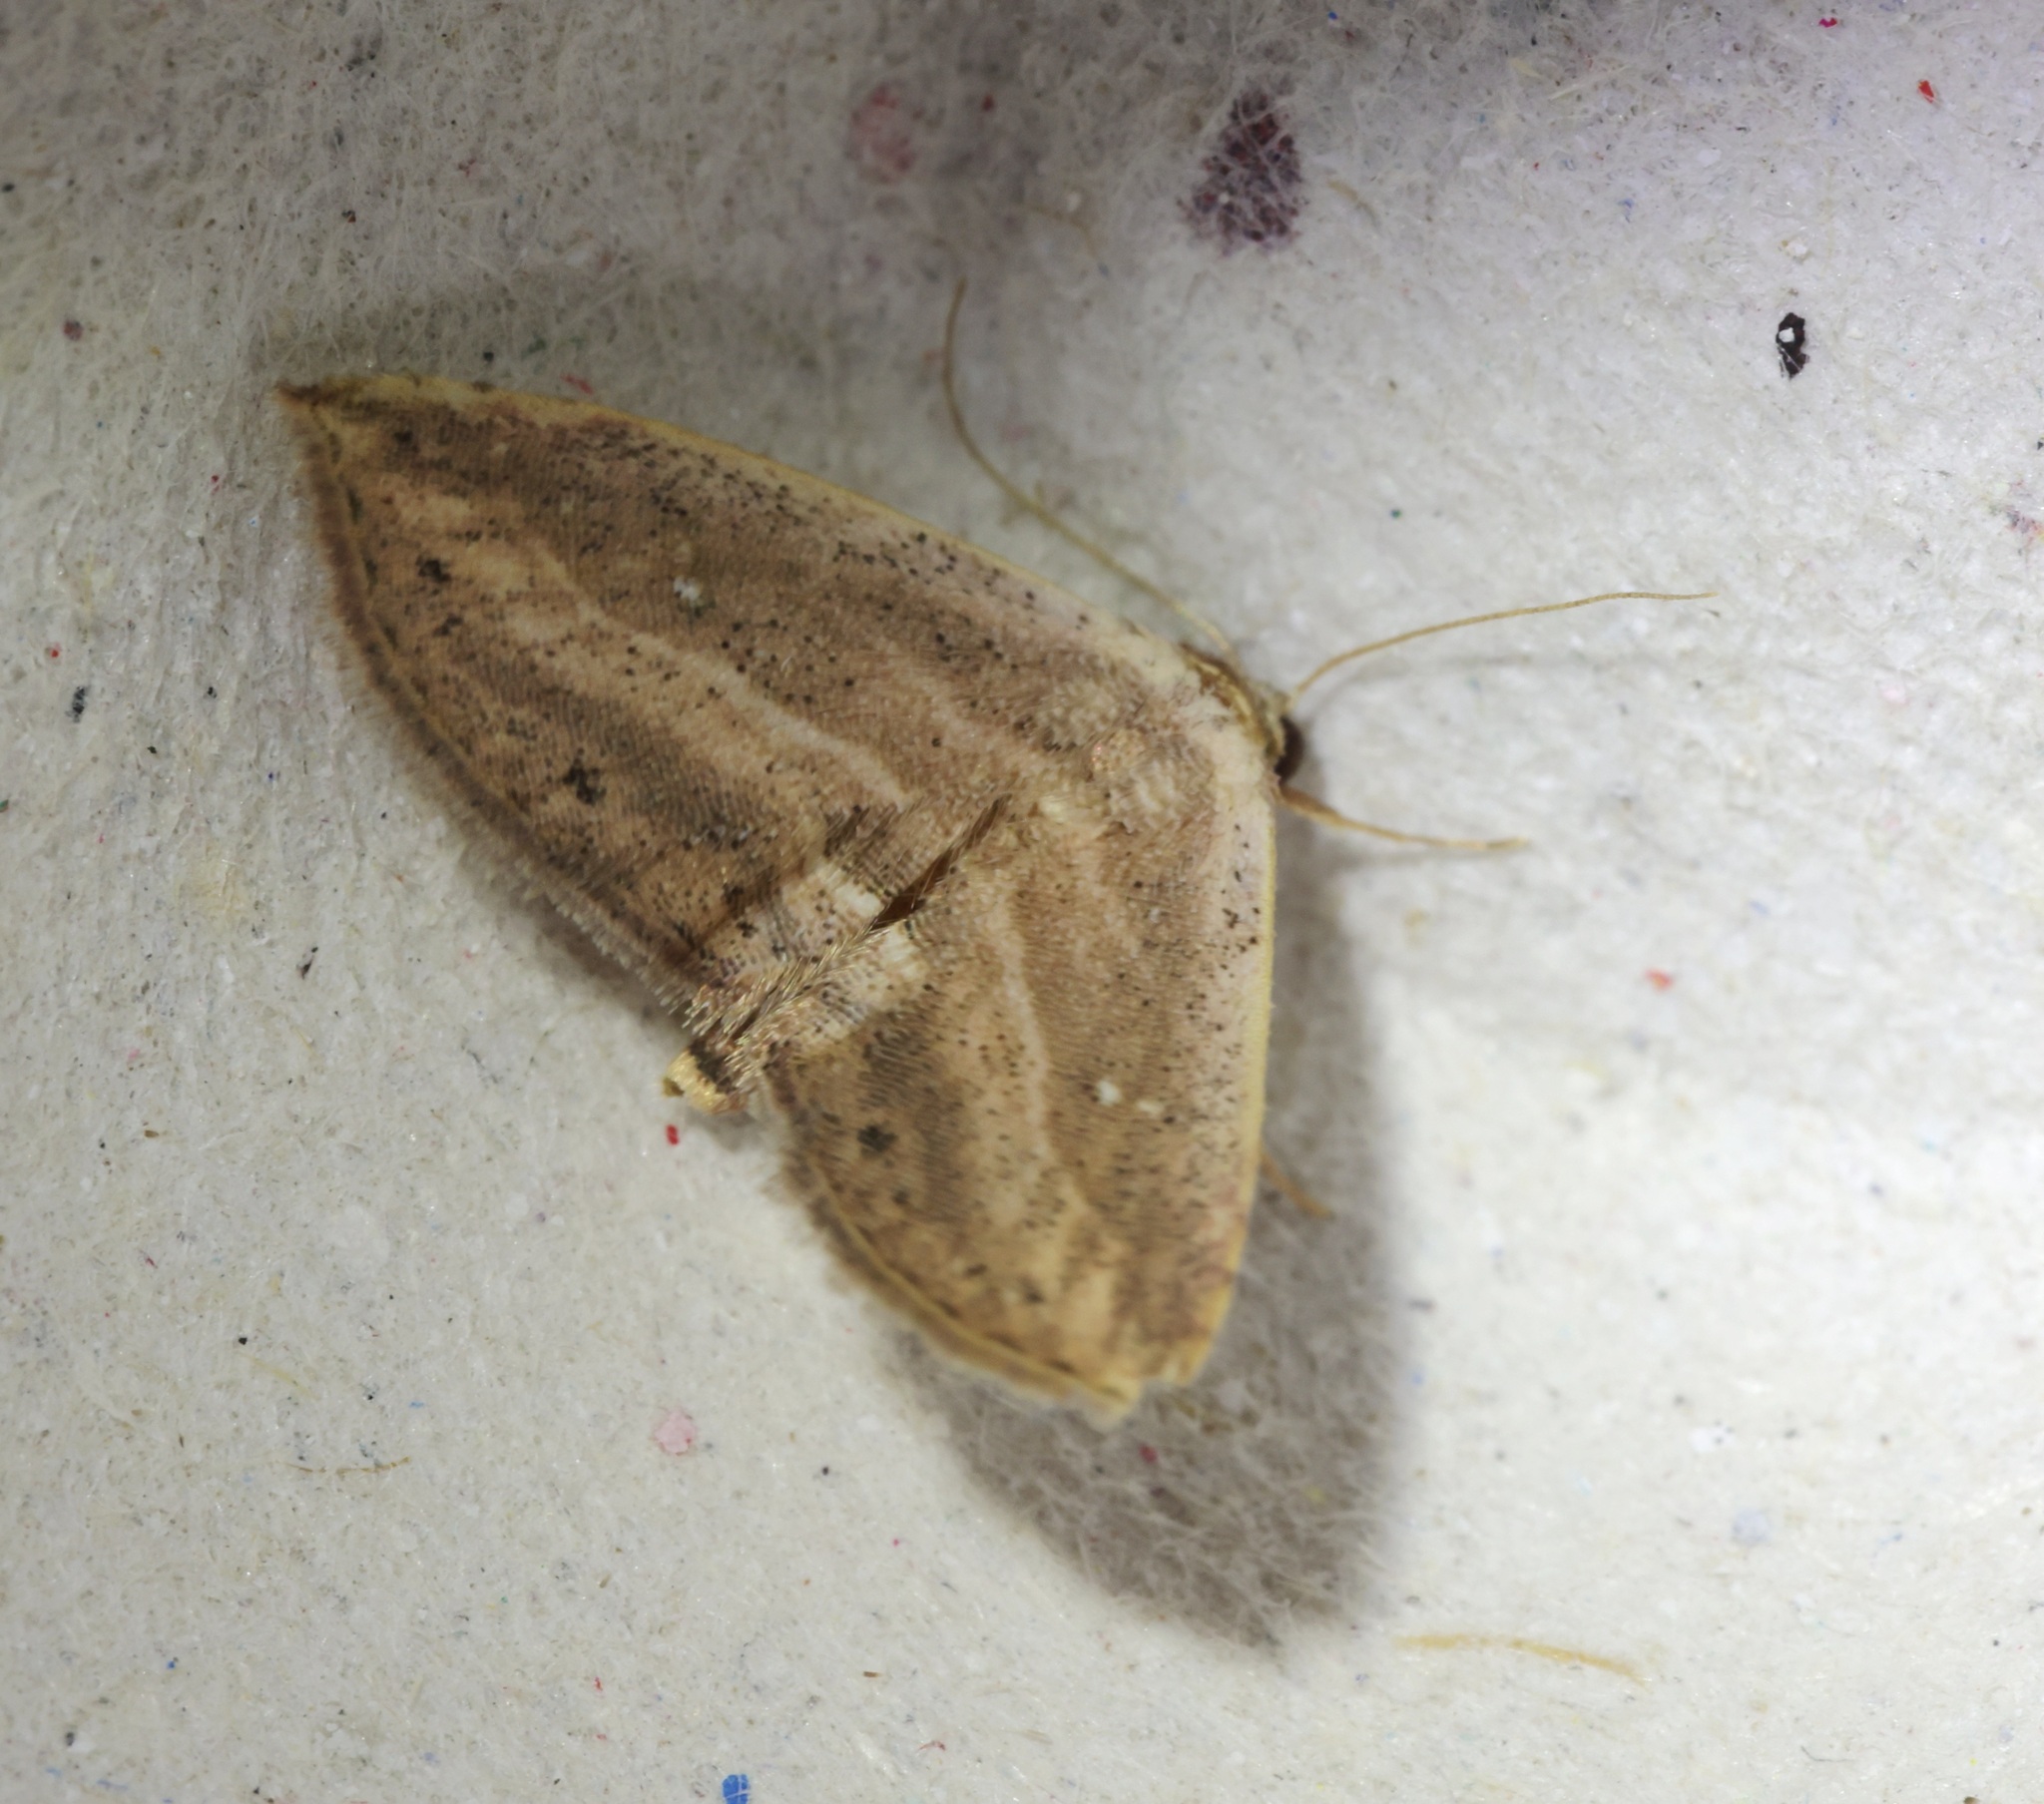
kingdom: Animalia
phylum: Arthropoda
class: Insecta
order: Lepidoptera
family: Noctuidae
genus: Hyposada
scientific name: Hyposada kadooriensis
